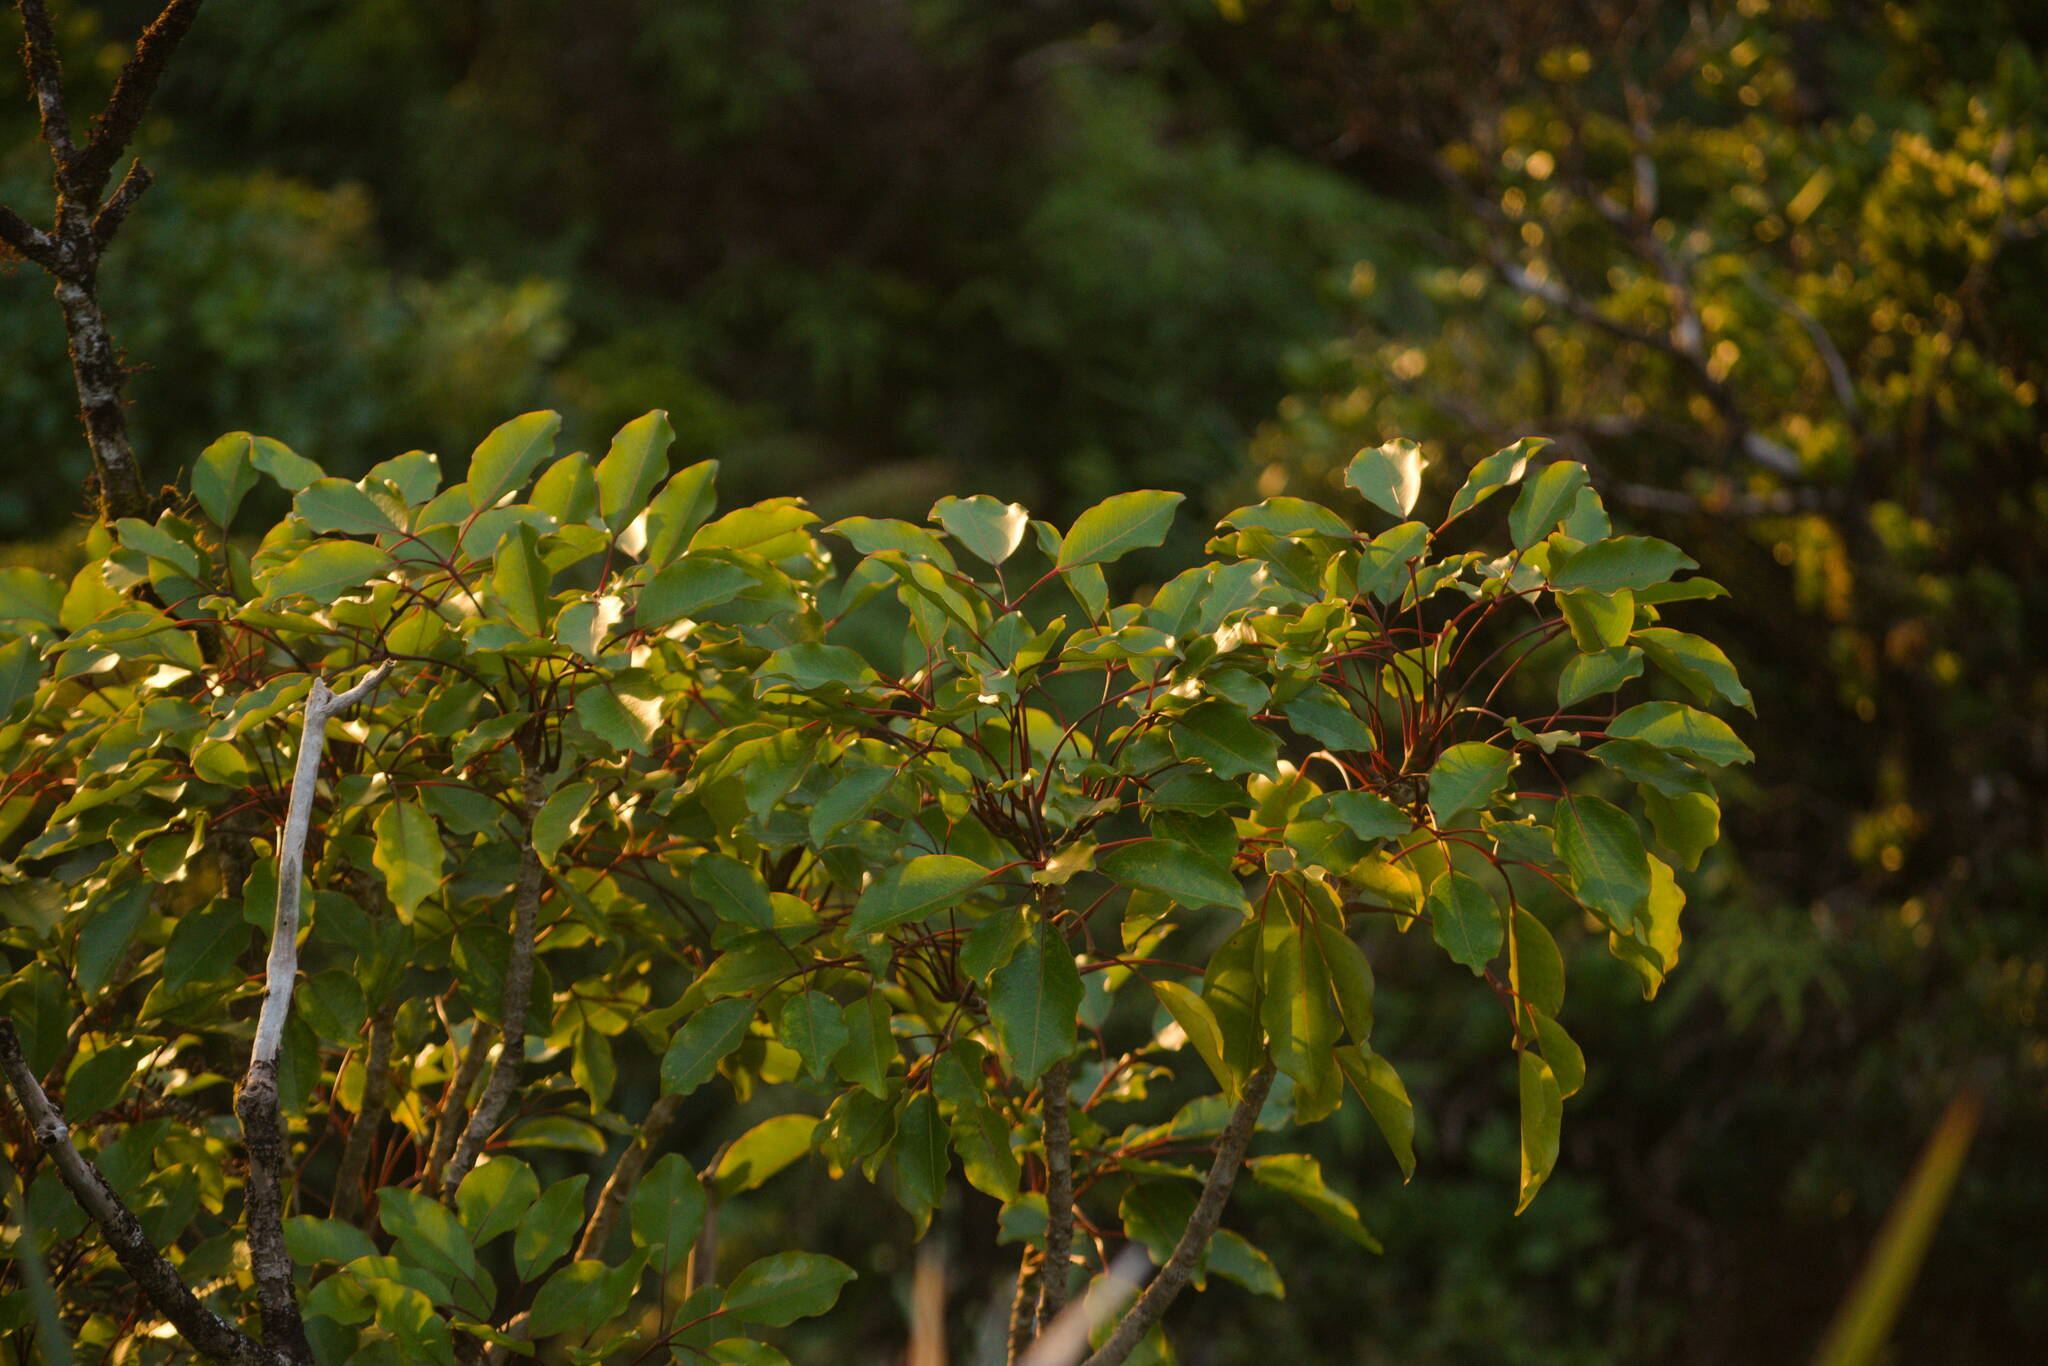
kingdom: Plantae
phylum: Tracheophyta
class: Magnoliopsida
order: Apiales
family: Araliaceae
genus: Cheirodendron
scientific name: Cheirodendron trigynum
